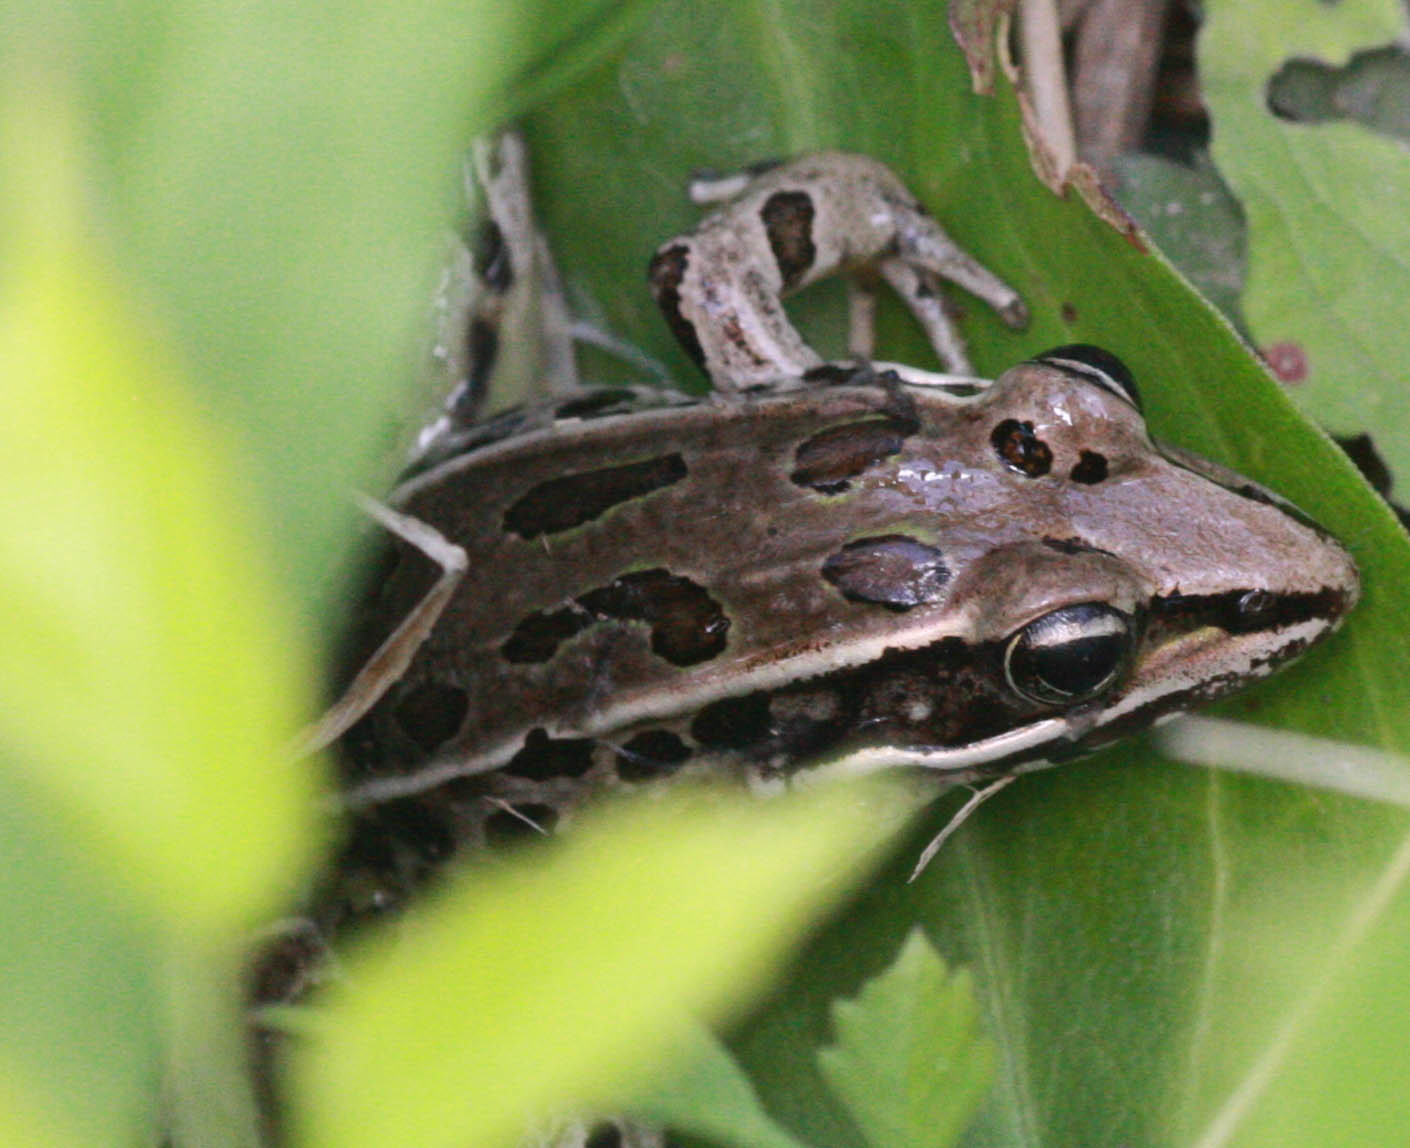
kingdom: Animalia
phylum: Chordata
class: Amphibia
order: Anura
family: Ranidae
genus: Lithobates
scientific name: Lithobates sphenocephalus
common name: Southern leopard frog
